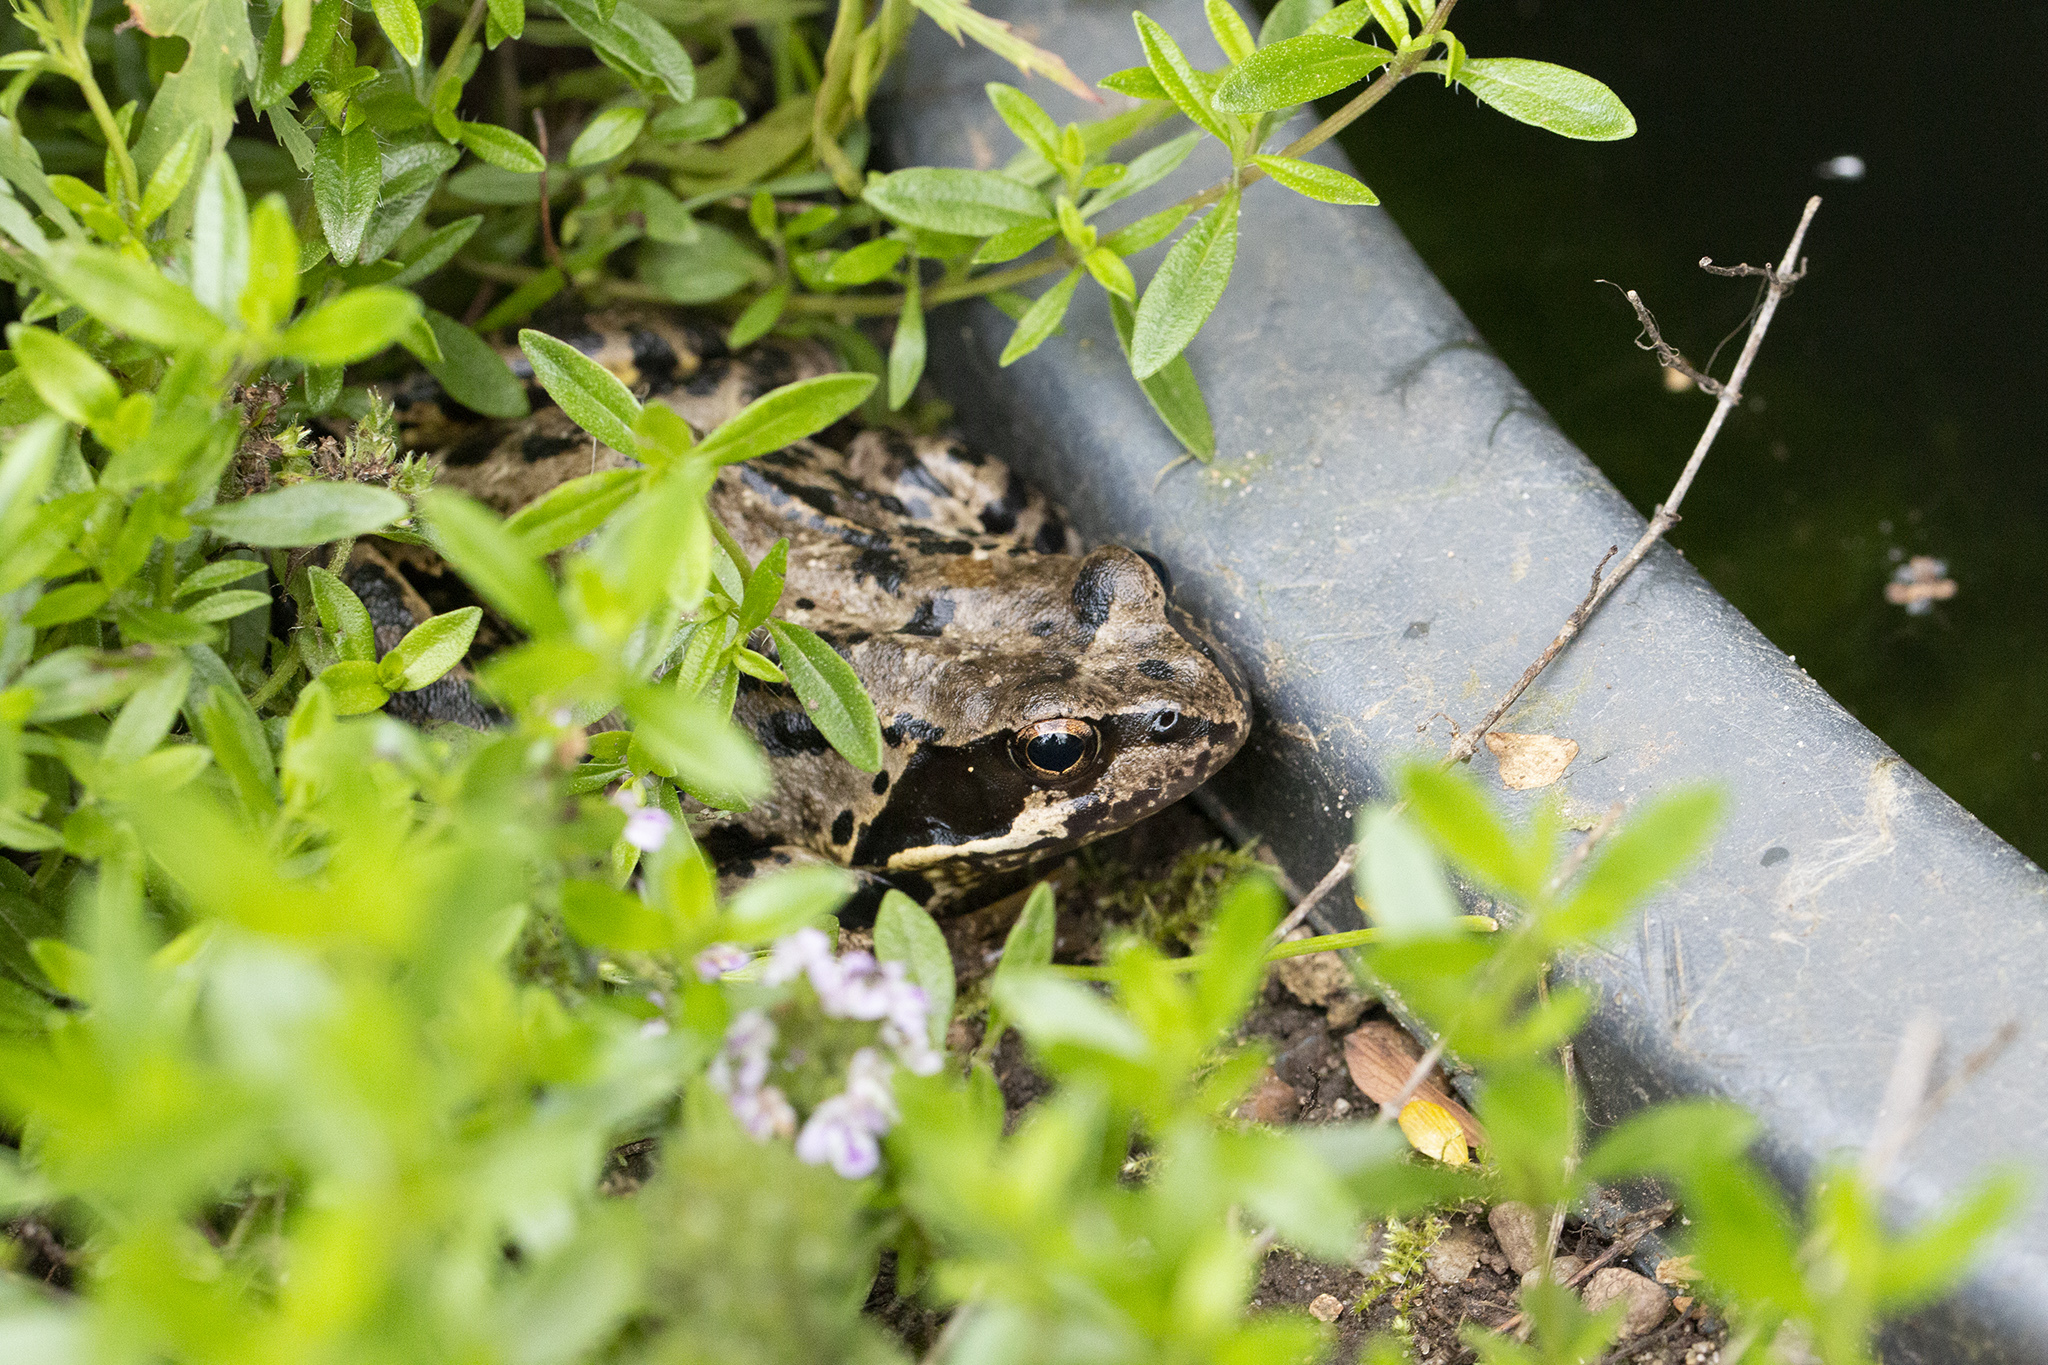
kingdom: Animalia
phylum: Chordata
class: Amphibia
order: Anura
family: Ranidae
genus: Rana
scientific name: Rana temporaria
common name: Common frog
